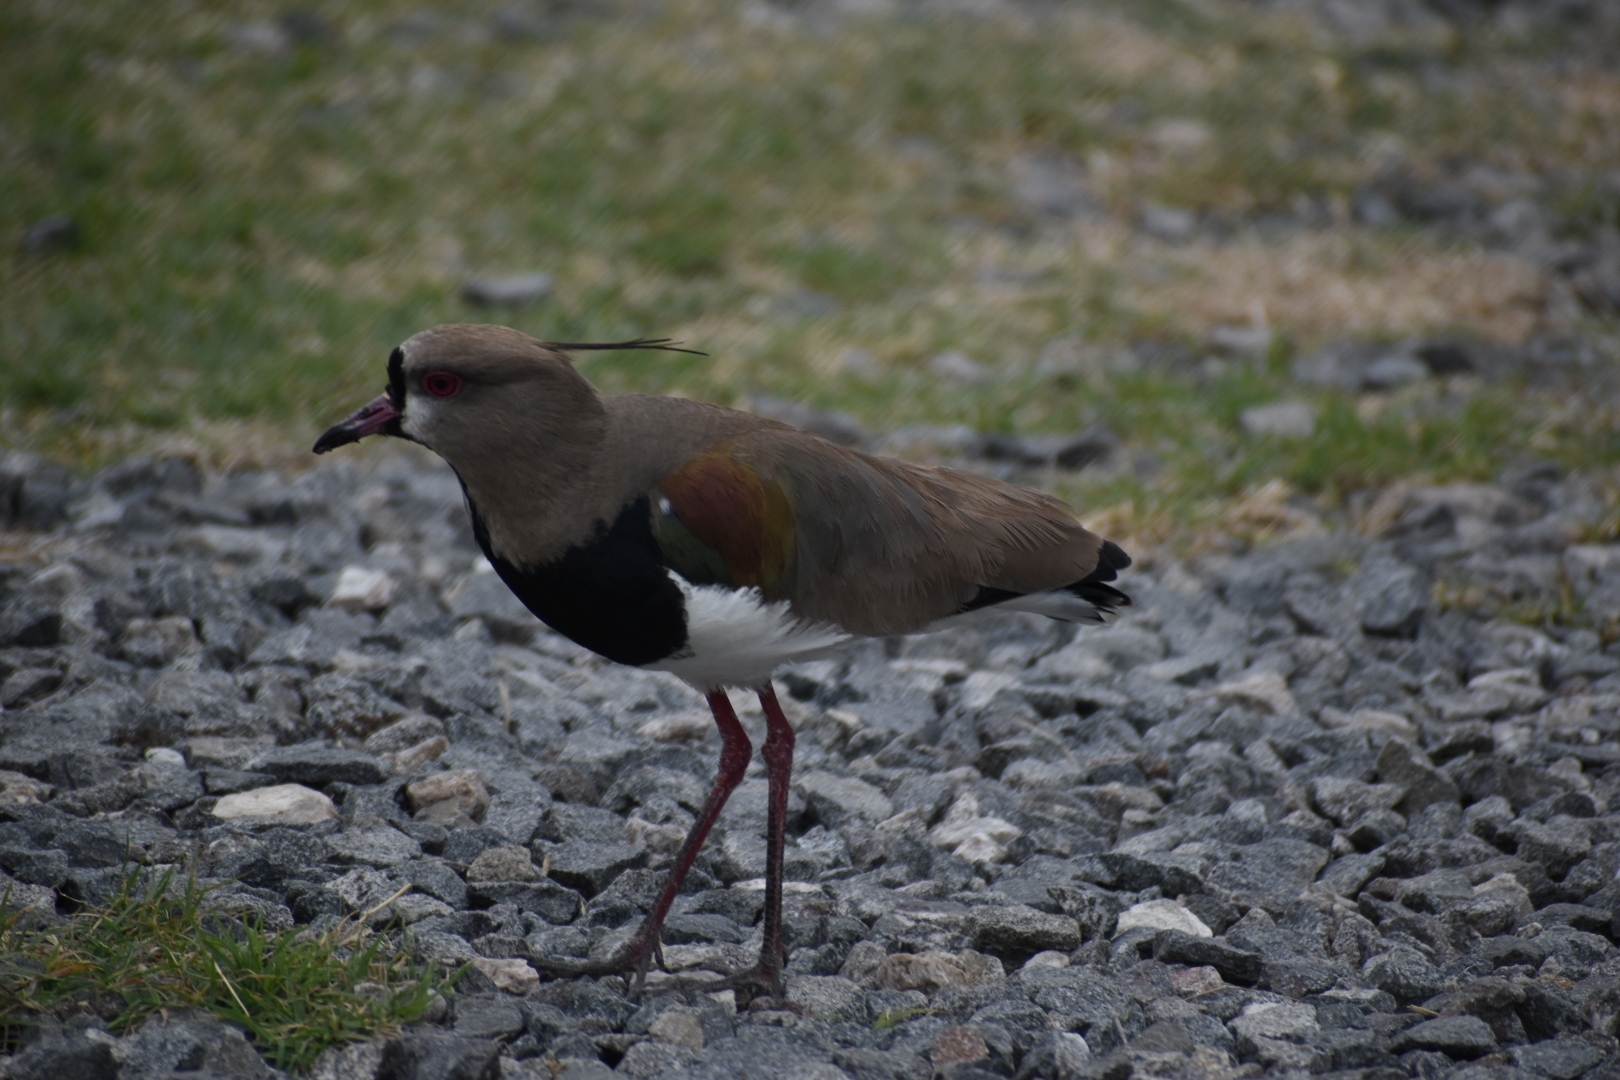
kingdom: Animalia
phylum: Chordata
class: Aves
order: Charadriiformes
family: Charadriidae
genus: Vanellus
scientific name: Vanellus chilensis
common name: Southern lapwing
